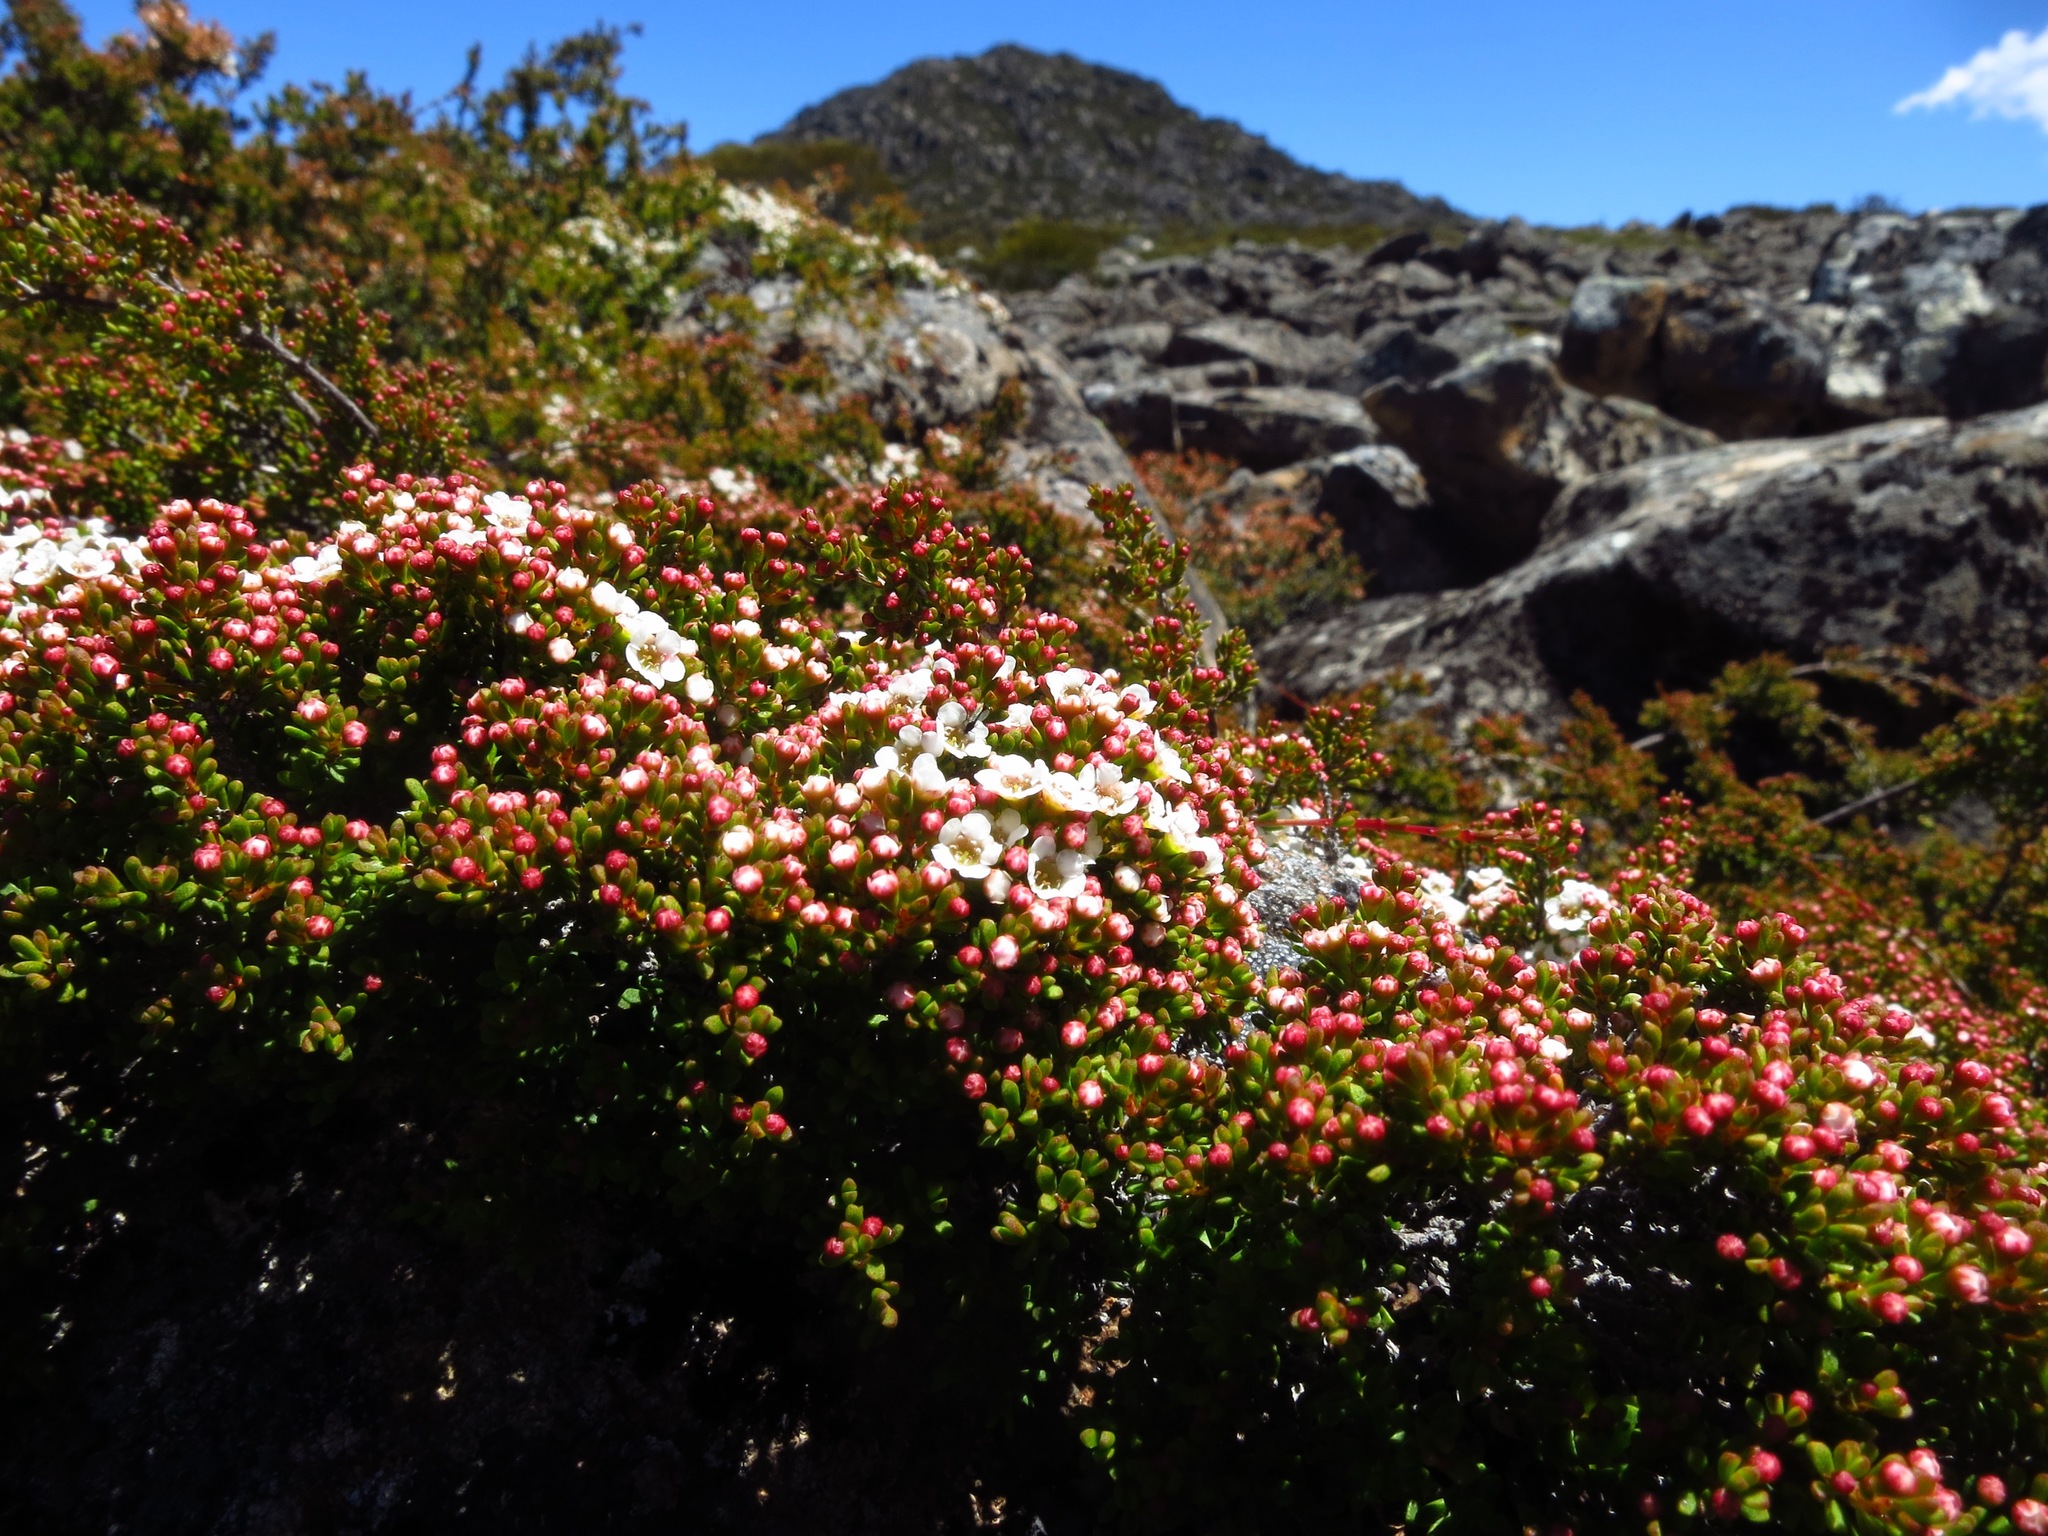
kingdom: Plantae
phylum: Tracheophyta
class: Magnoliopsida
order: Myrtales
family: Myrtaceae
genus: Baeckea
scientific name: Baeckea gunniana
